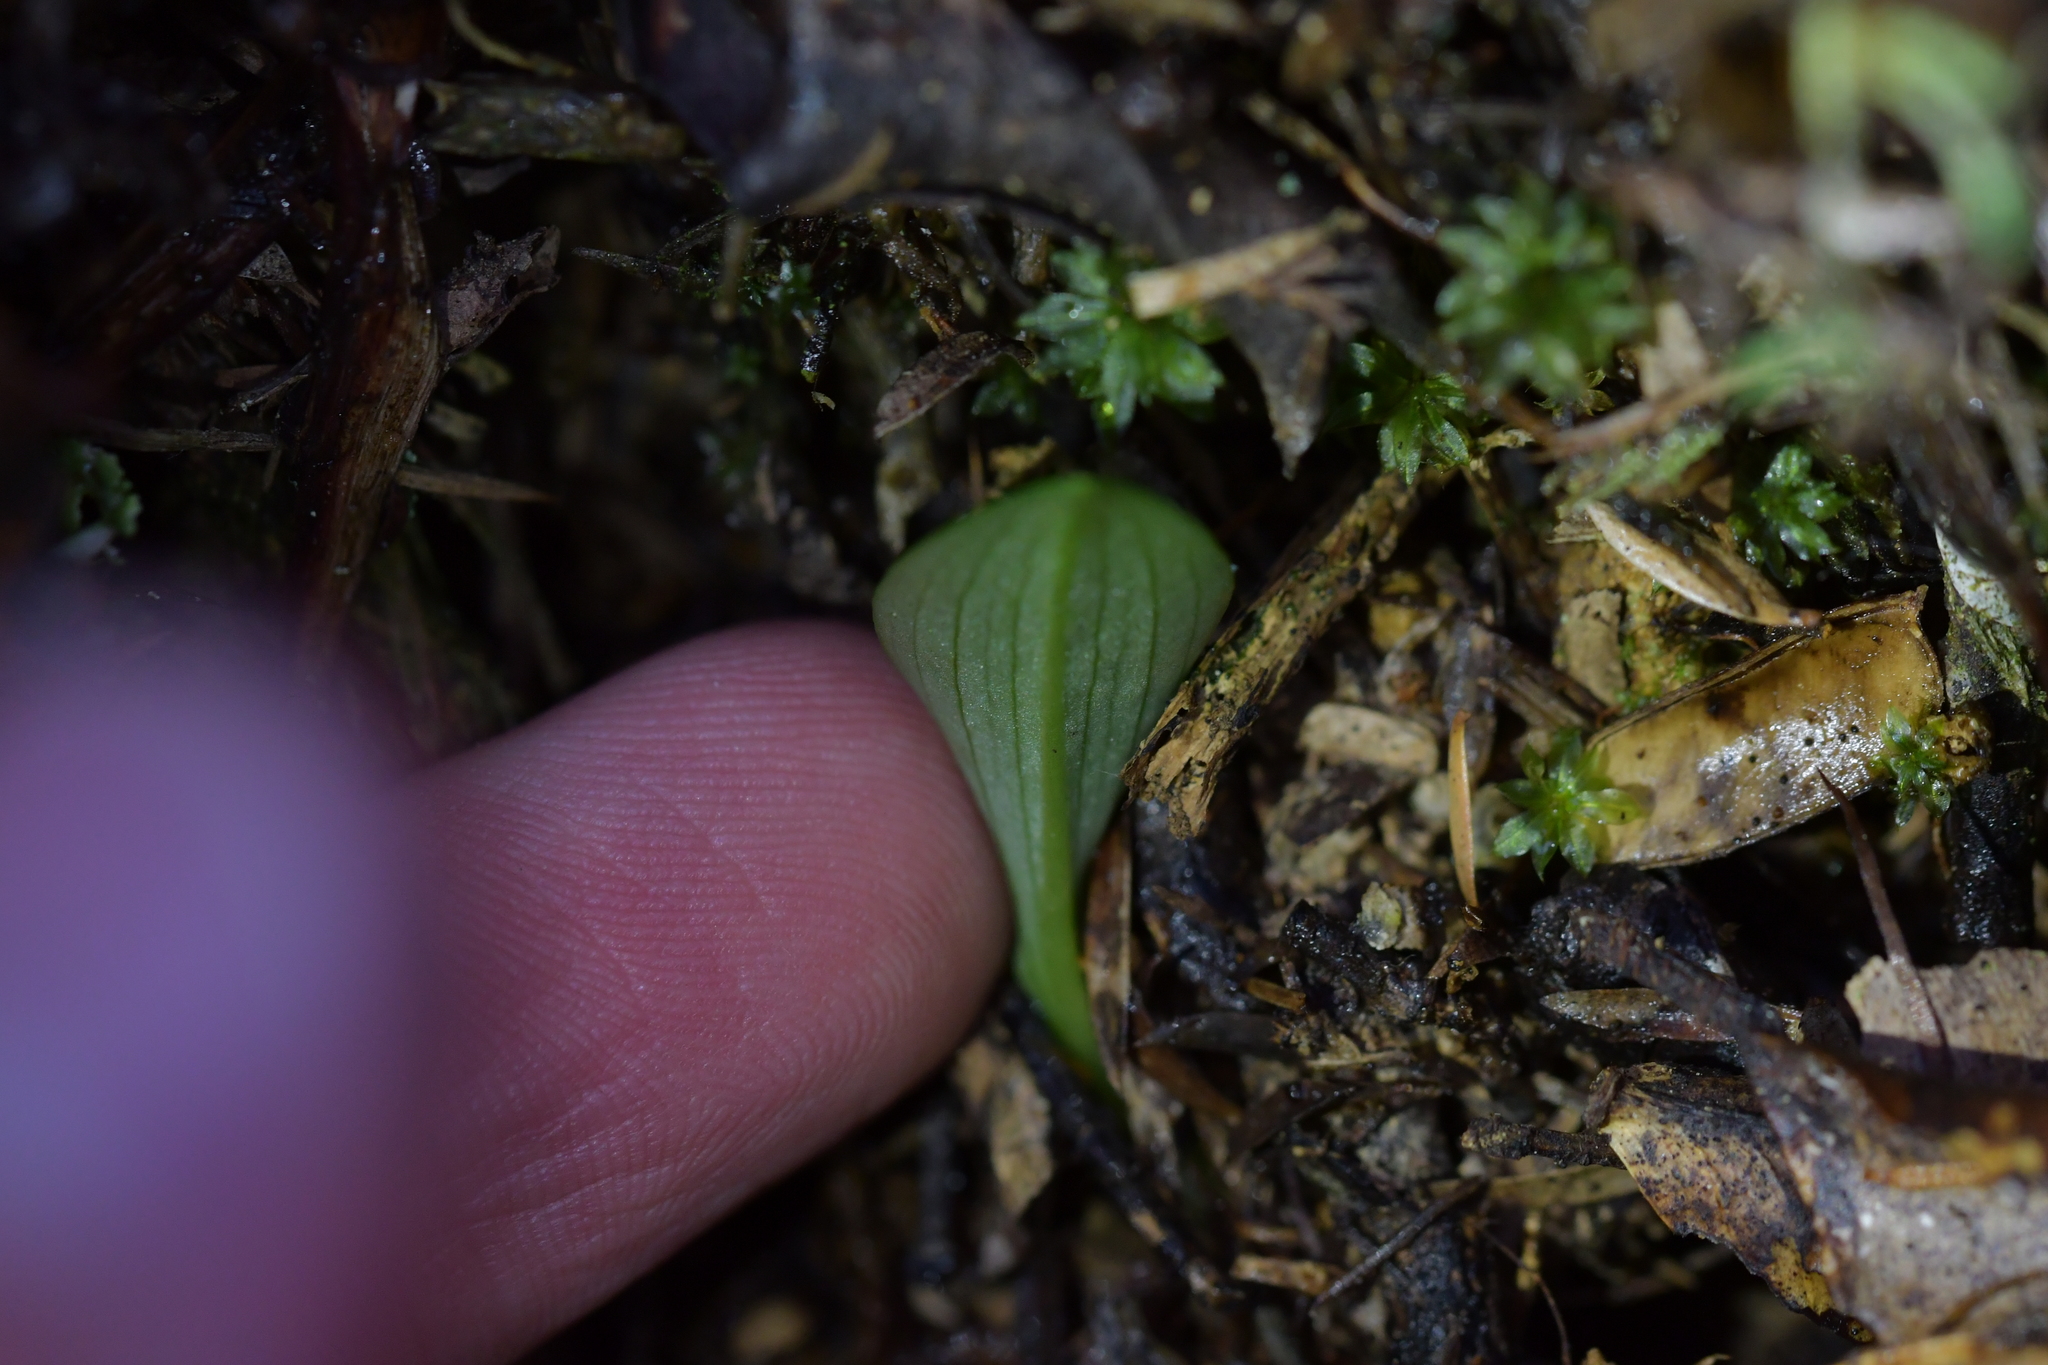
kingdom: Plantae
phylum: Tracheophyta
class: Liliopsida
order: Asparagales
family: Orchidaceae
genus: Chiloglottis
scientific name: Chiloglottis cornuta
